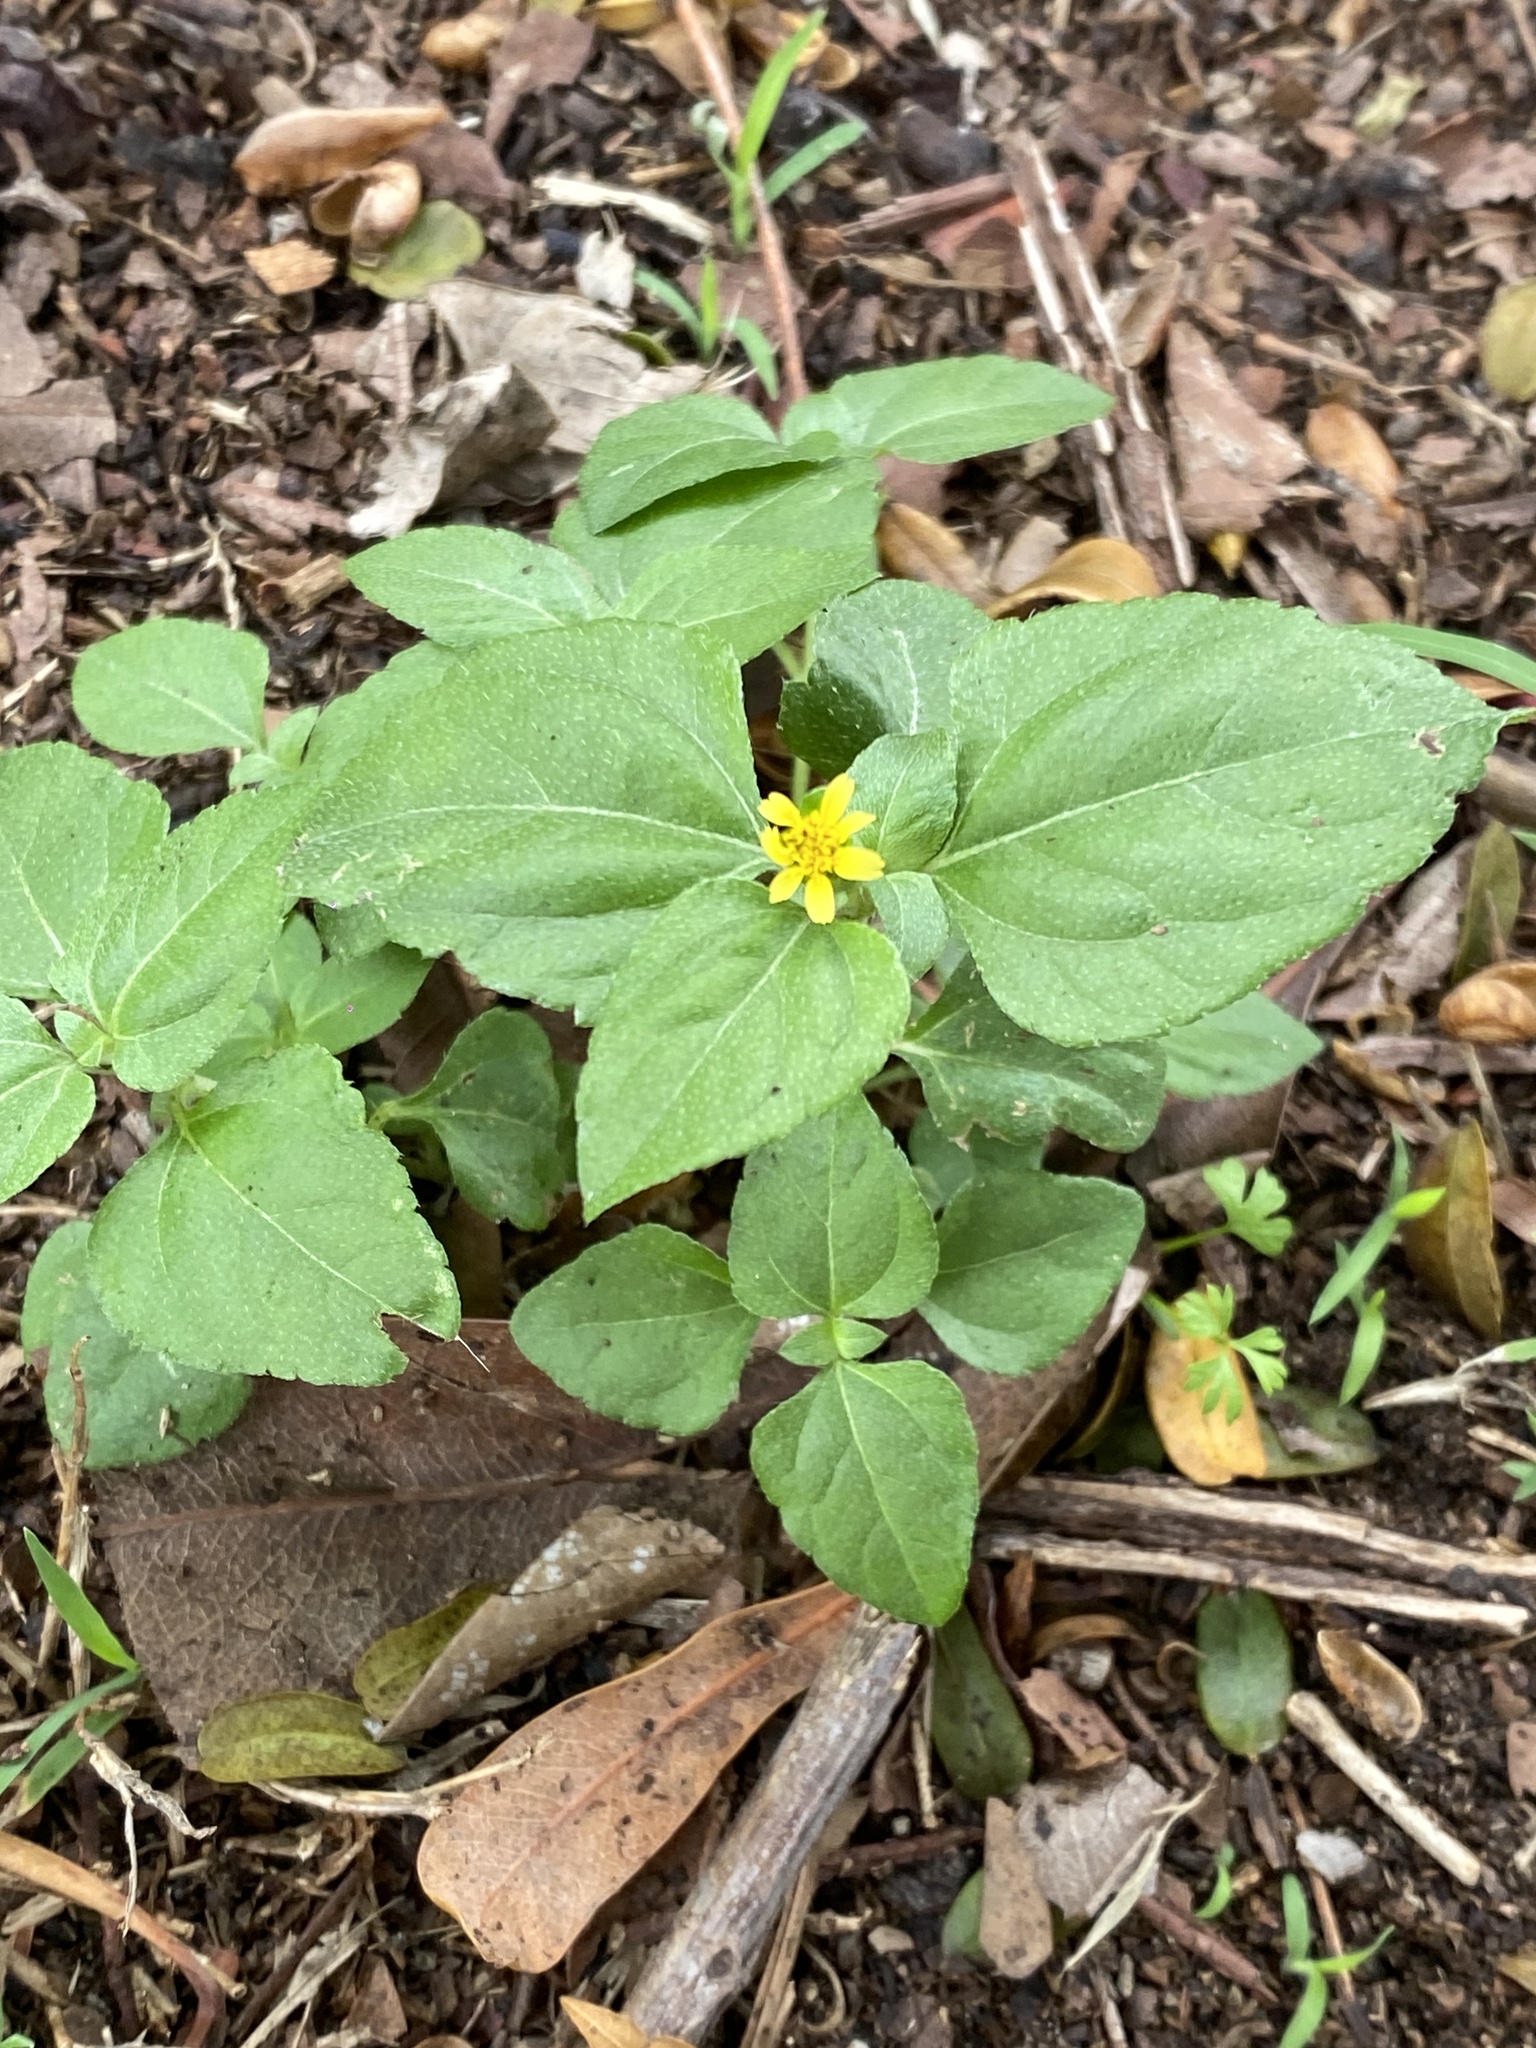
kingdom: Plantae
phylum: Tracheophyta
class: Magnoliopsida
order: Asterales
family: Asteraceae
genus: Calyptocarpus
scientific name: Calyptocarpus vialis
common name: Straggler daisy
